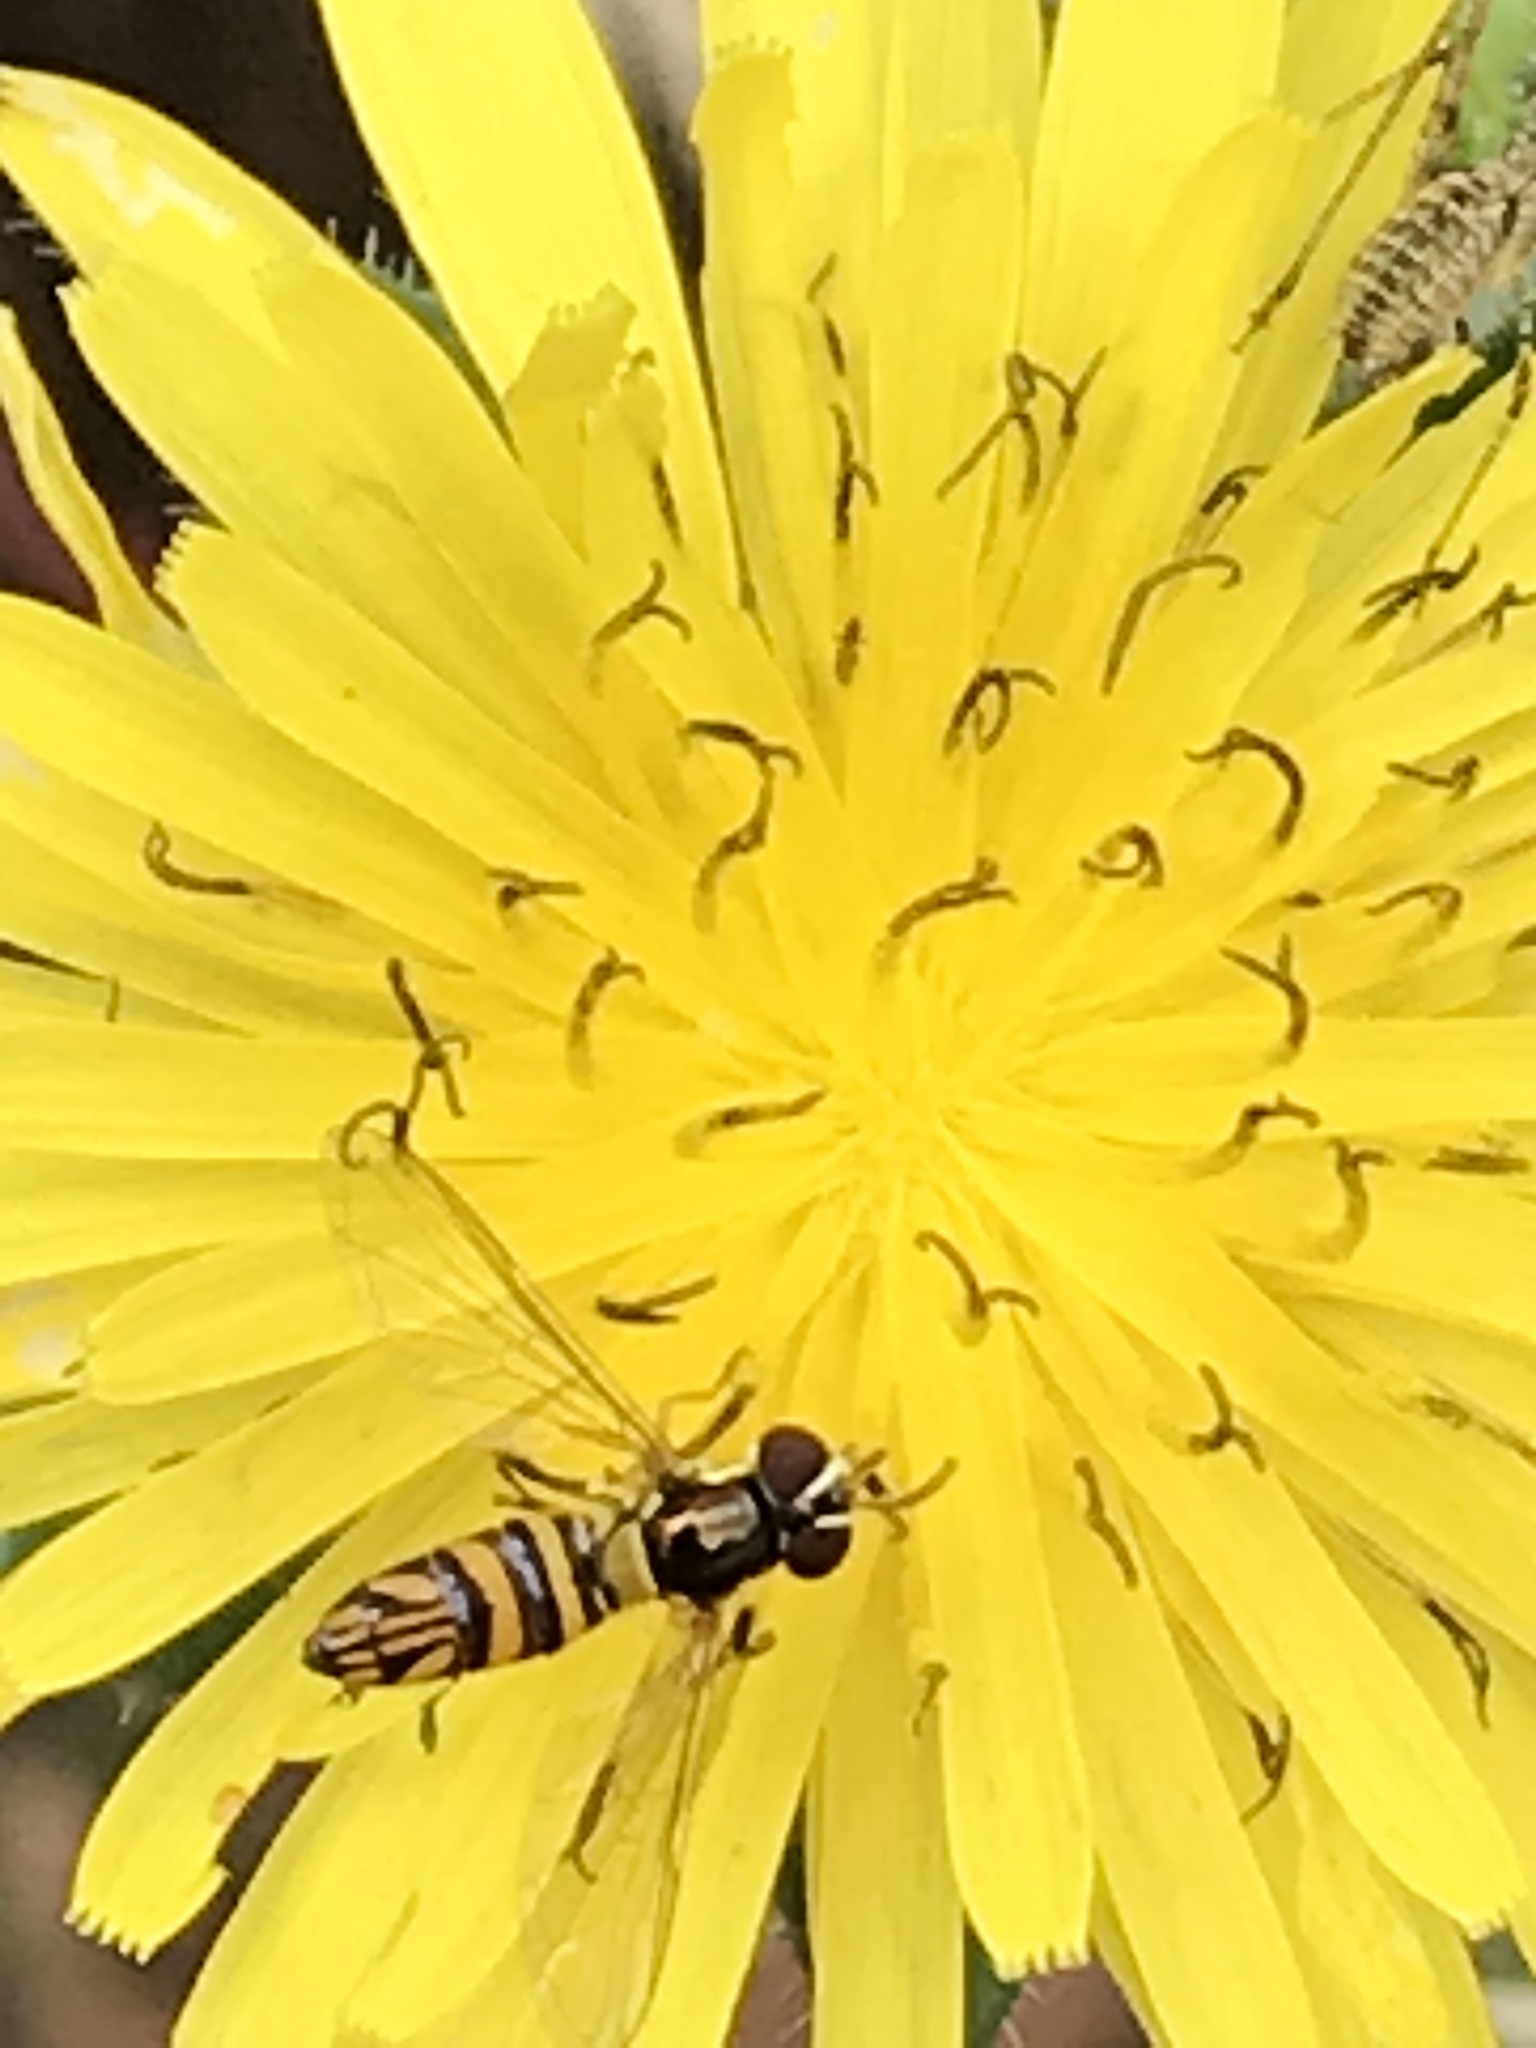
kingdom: Animalia
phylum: Arthropoda
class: Insecta
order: Diptera
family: Syrphidae
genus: Allograpta
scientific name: Allograpta obliqua
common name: Common oblique syrphid
